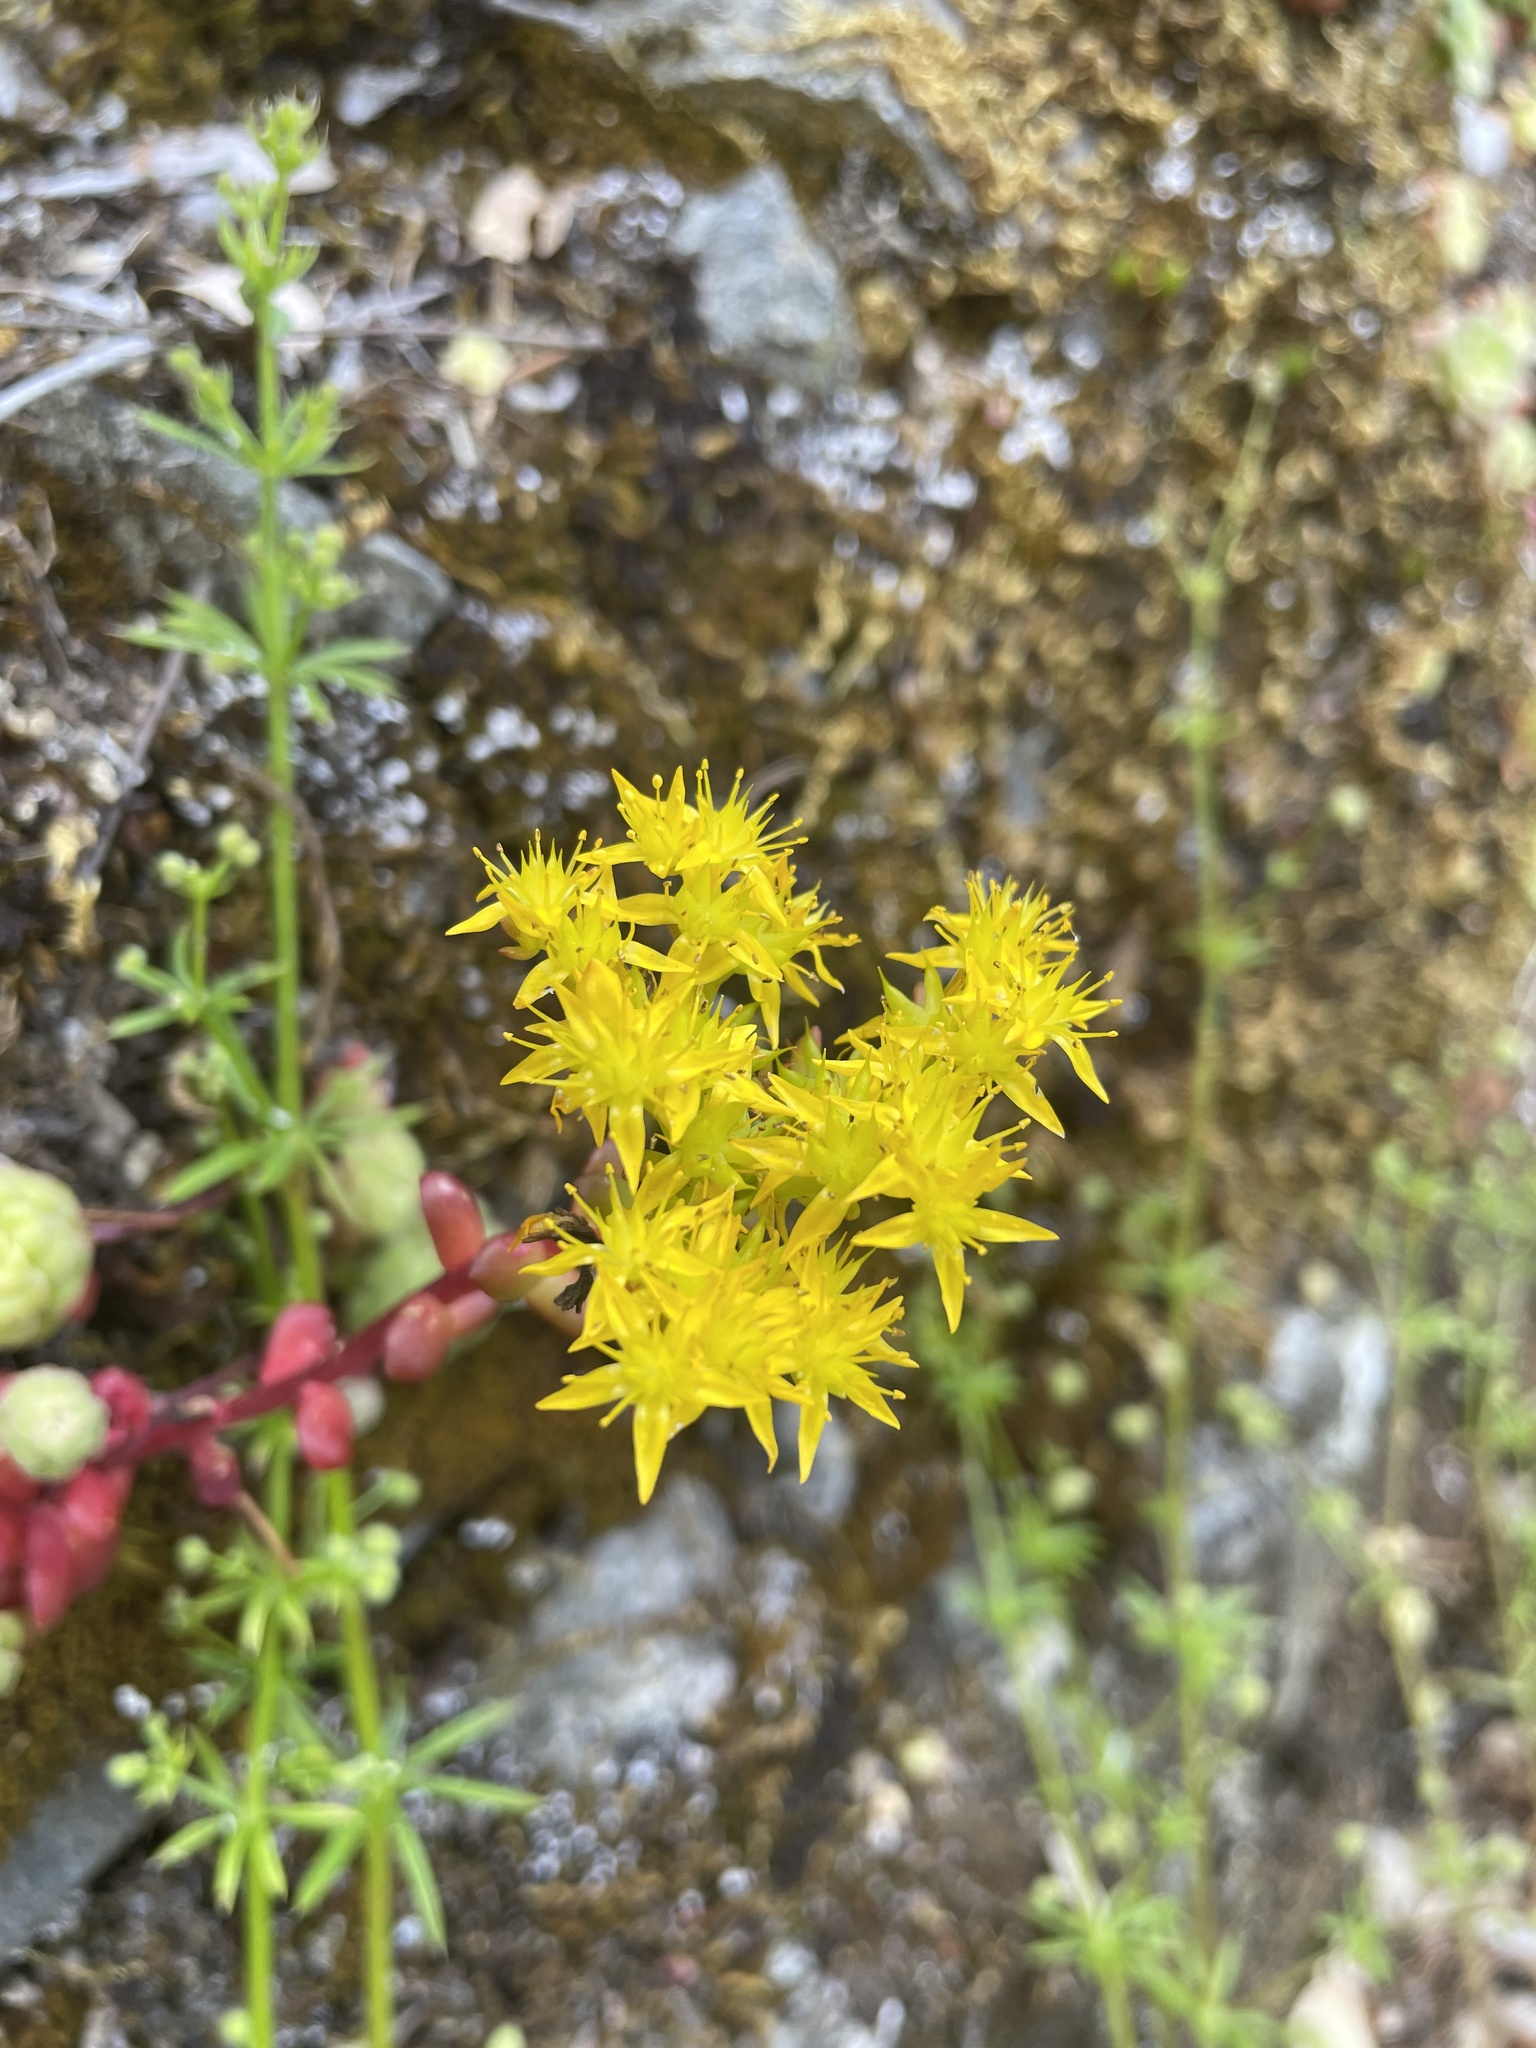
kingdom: Plantae
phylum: Tracheophyta
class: Magnoliopsida
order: Saxifragales
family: Crassulaceae
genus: Sedum
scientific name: Sedum spathulifolium
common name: Colorado stonecrop
